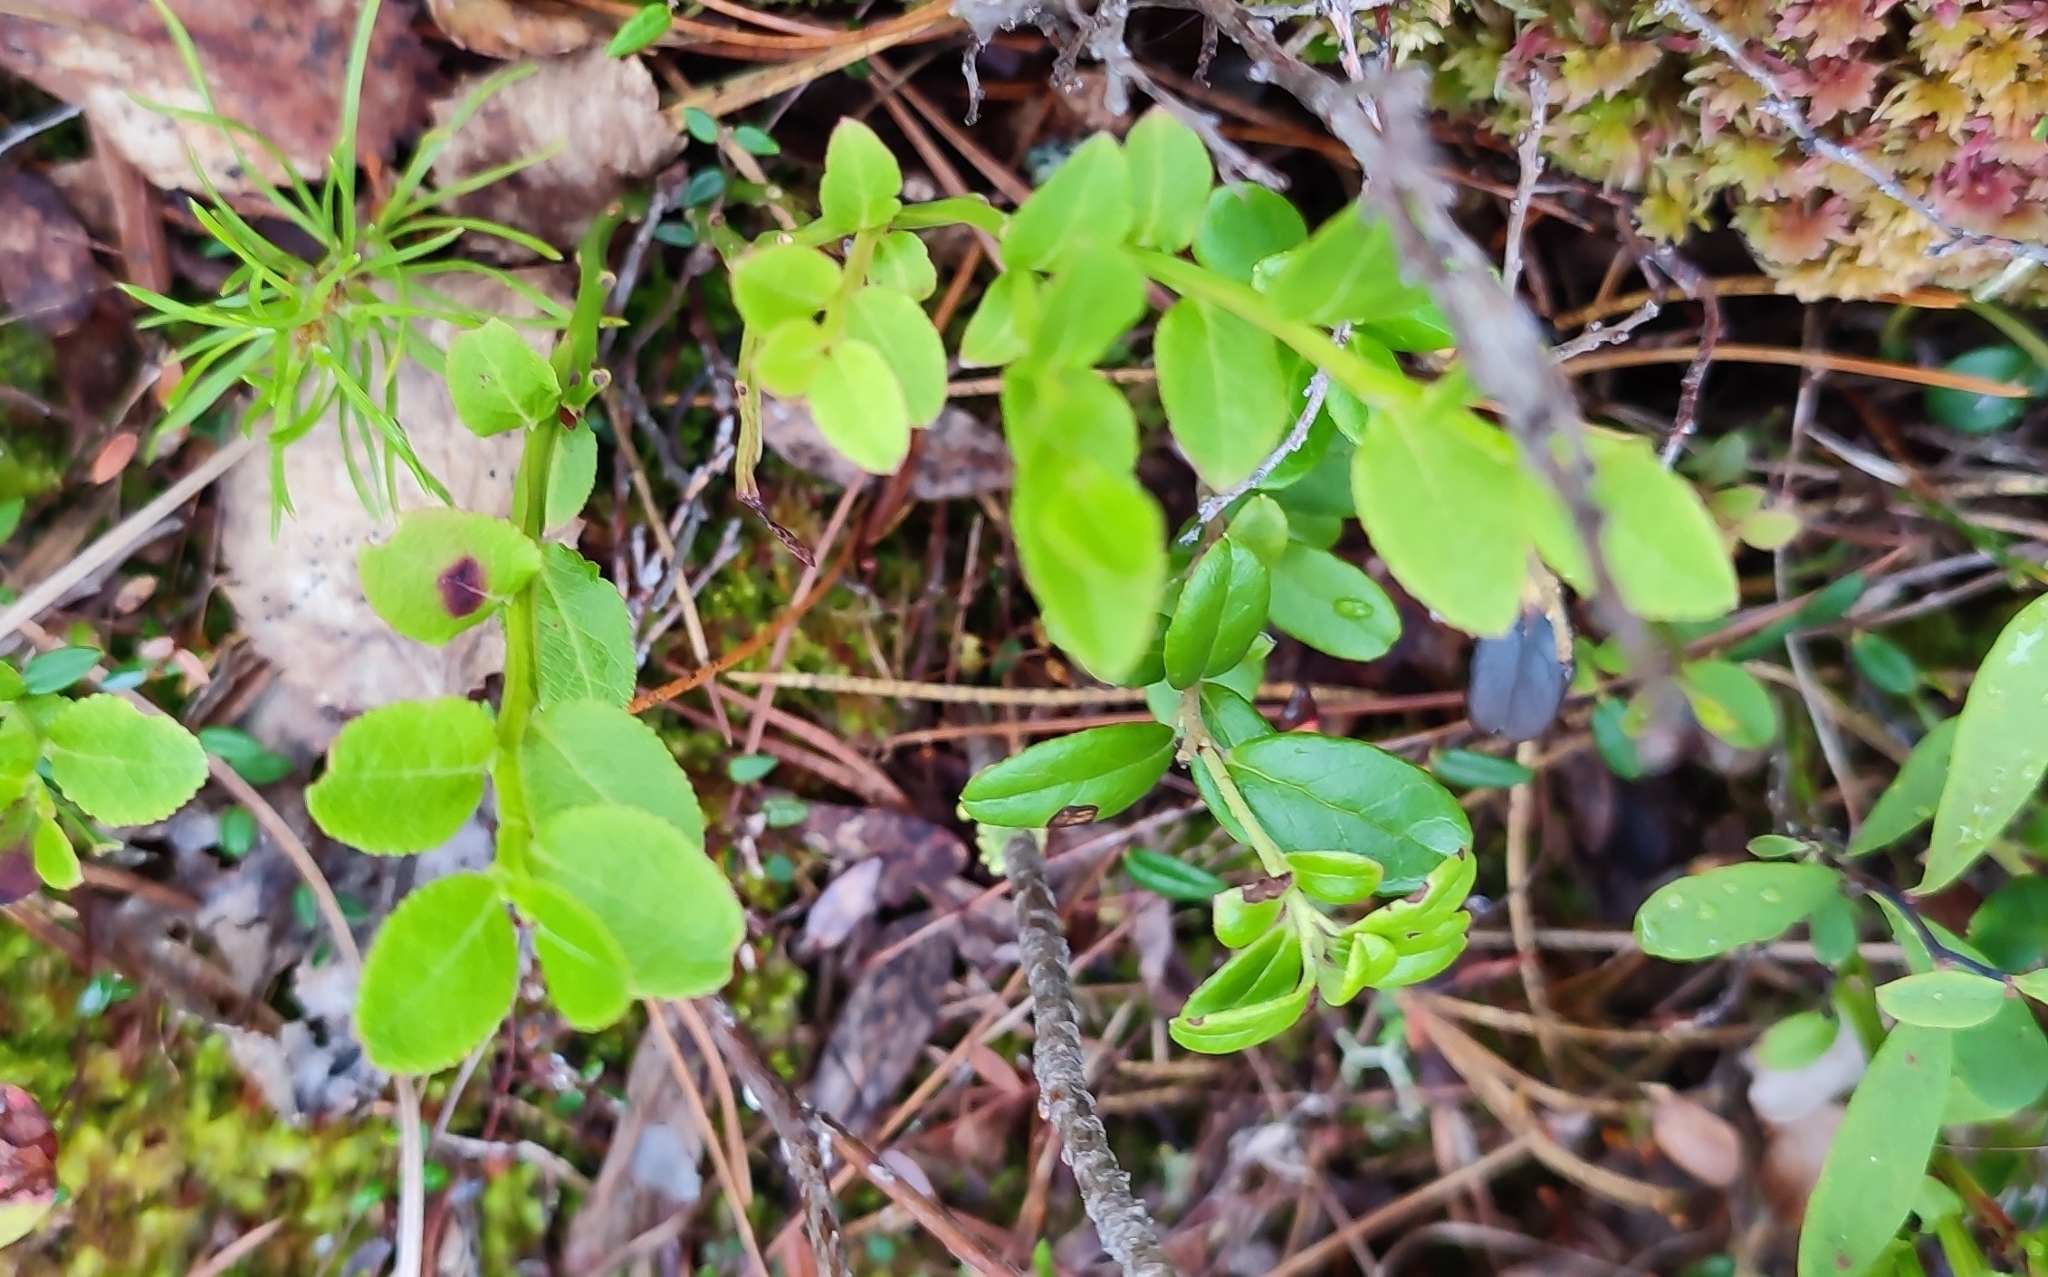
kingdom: Plantae
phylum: Tracheophyta
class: Magnoliopsida
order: Ericales
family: Ericaceae
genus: Vaccinium
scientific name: Vaccinium myrtillus
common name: Bilberry
